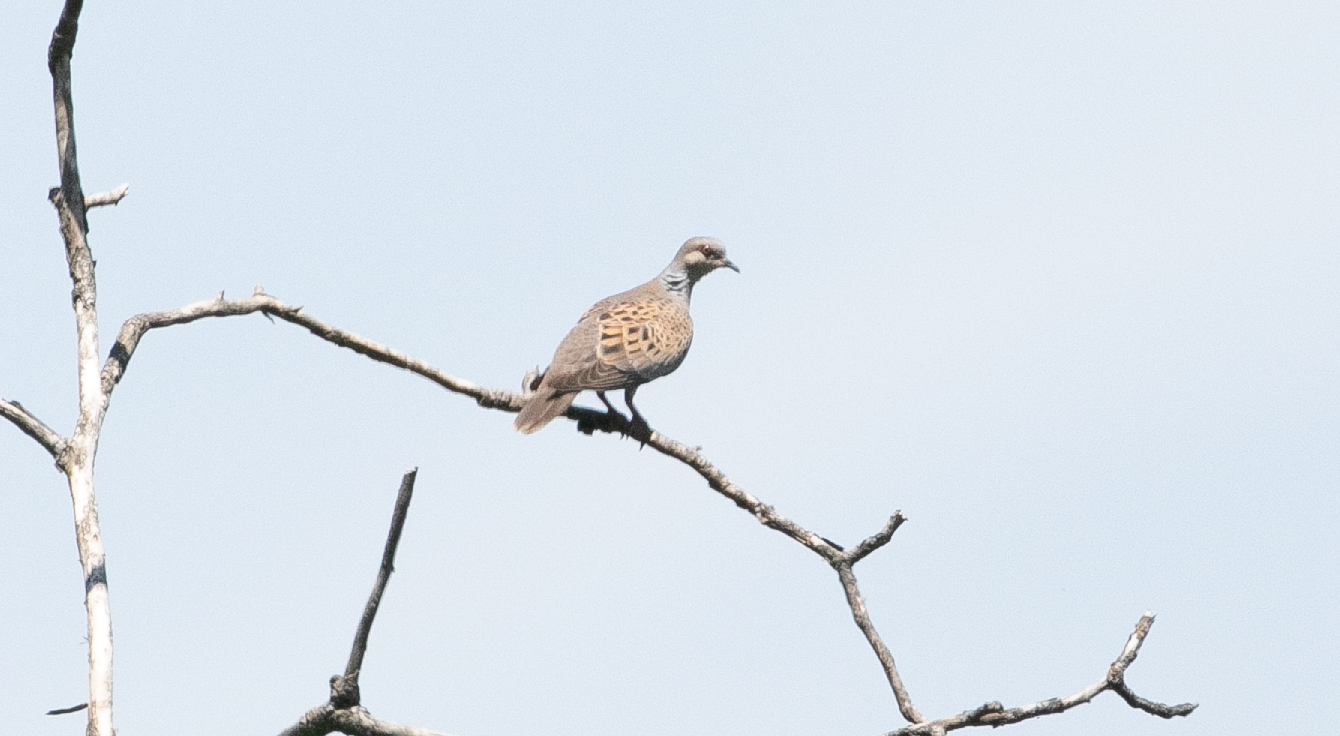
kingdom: Animalia
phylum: Chordata
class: Aves
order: Columbiformes
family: Columbidae
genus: Streptopelia
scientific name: Streptopelia turtur
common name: European turtle dove
